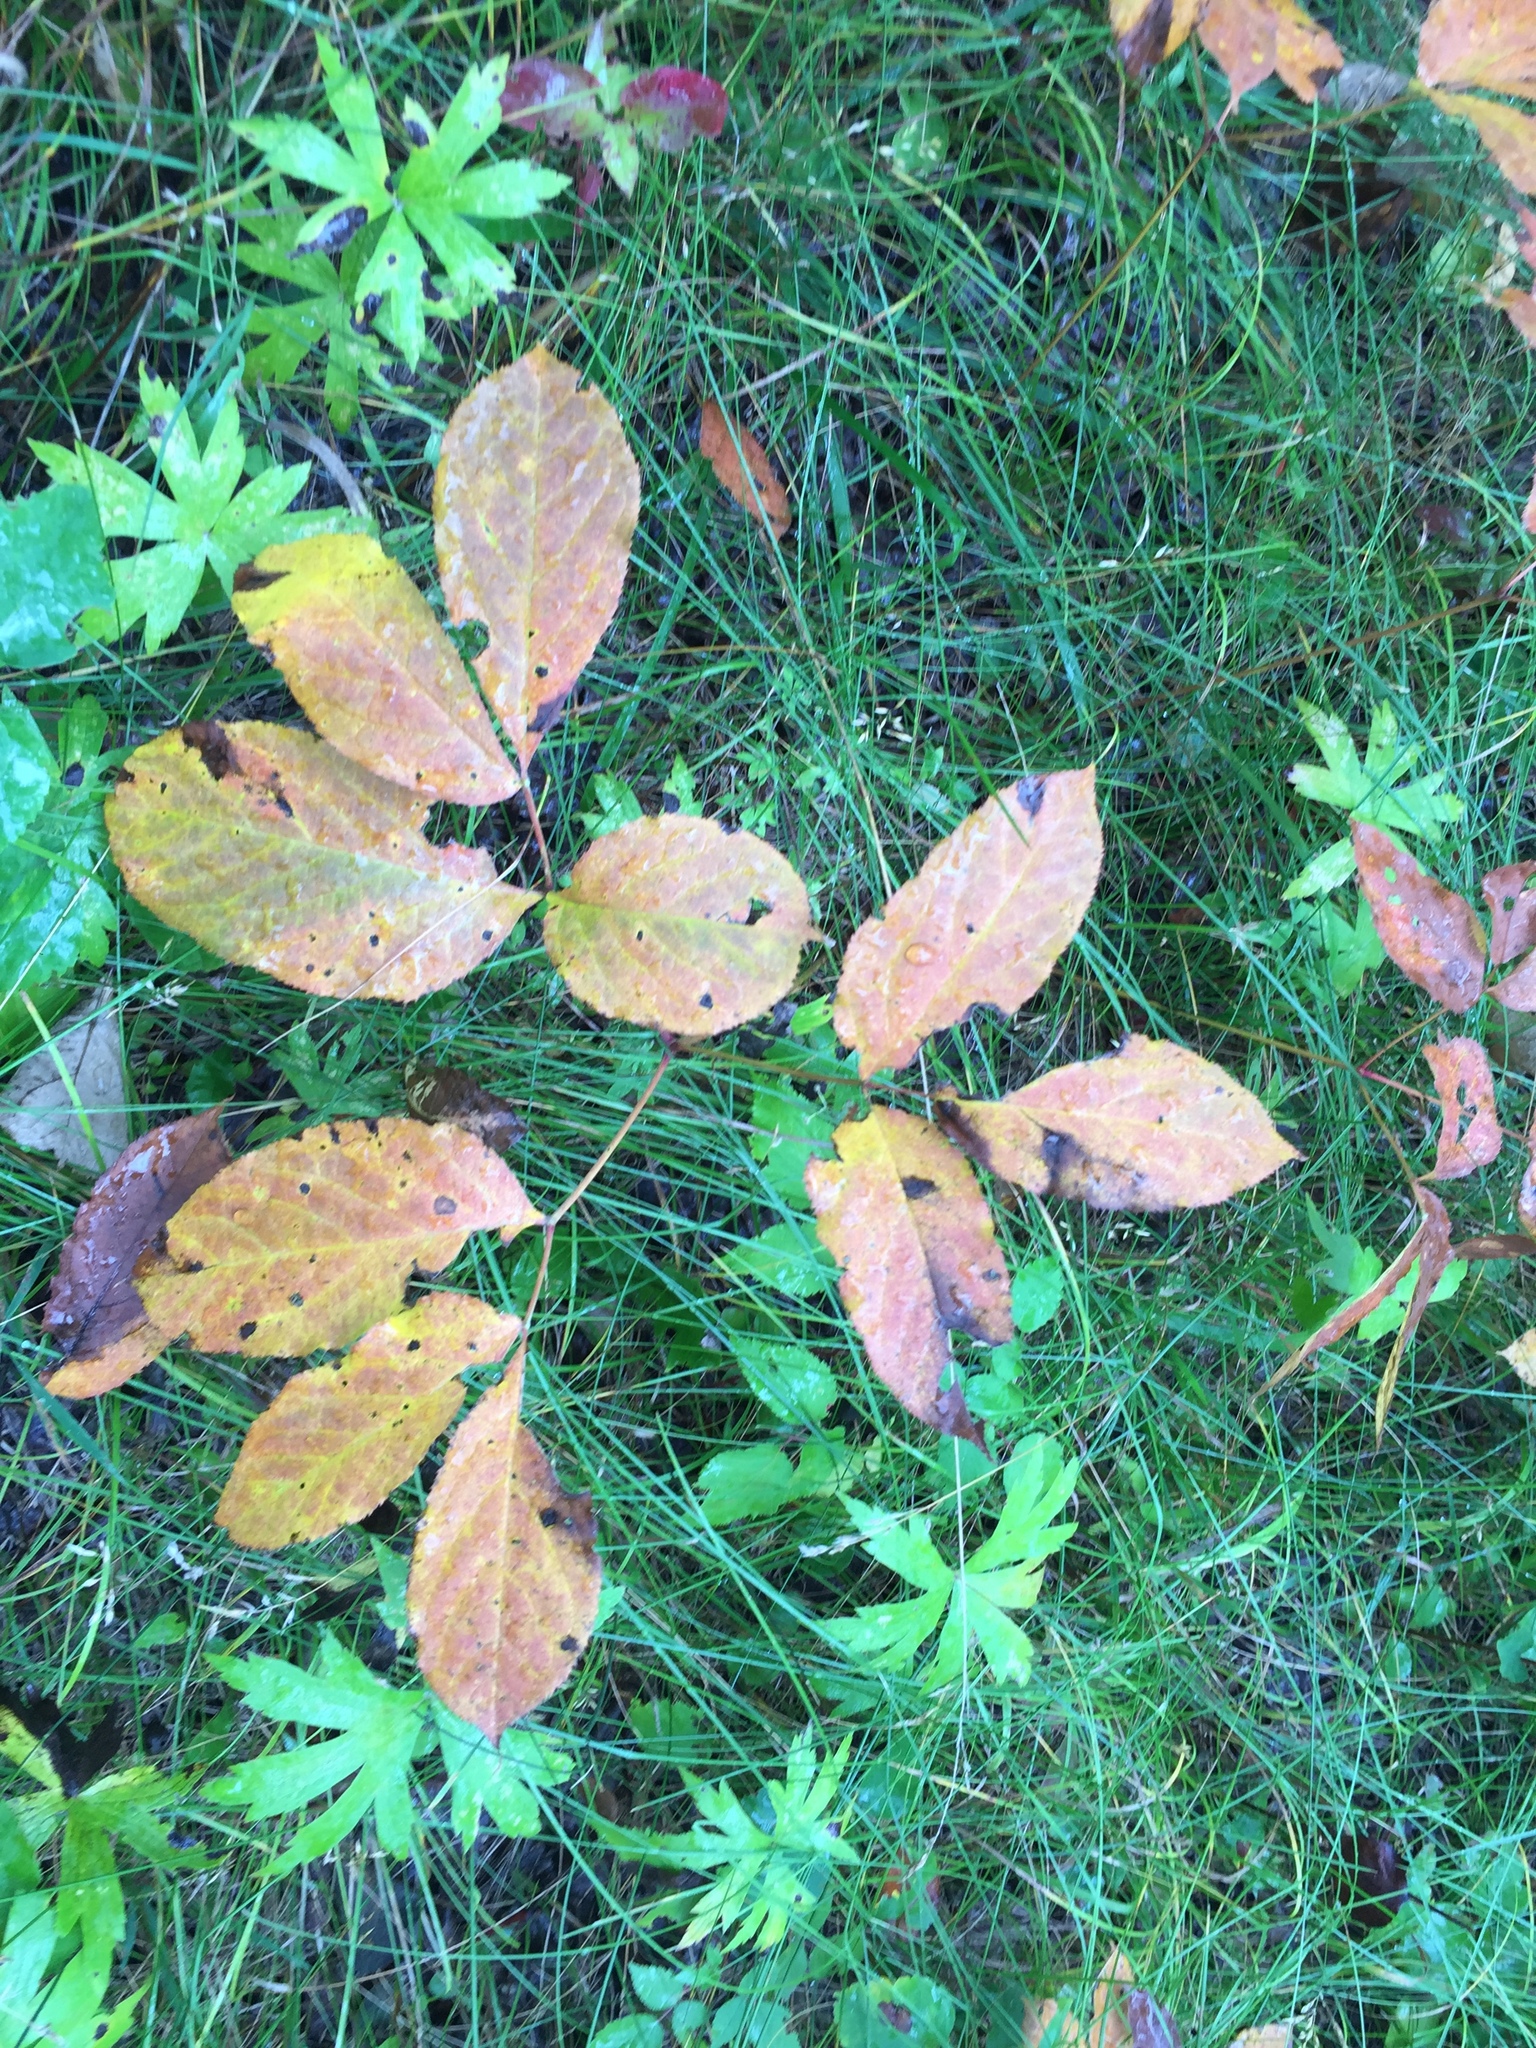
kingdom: Plantae
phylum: Tracheophyta
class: Magnoliopsida
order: Apiales
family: Araliaceae
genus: Aralia
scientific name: Aralia nudicaulis
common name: Wild sarsaparilla
